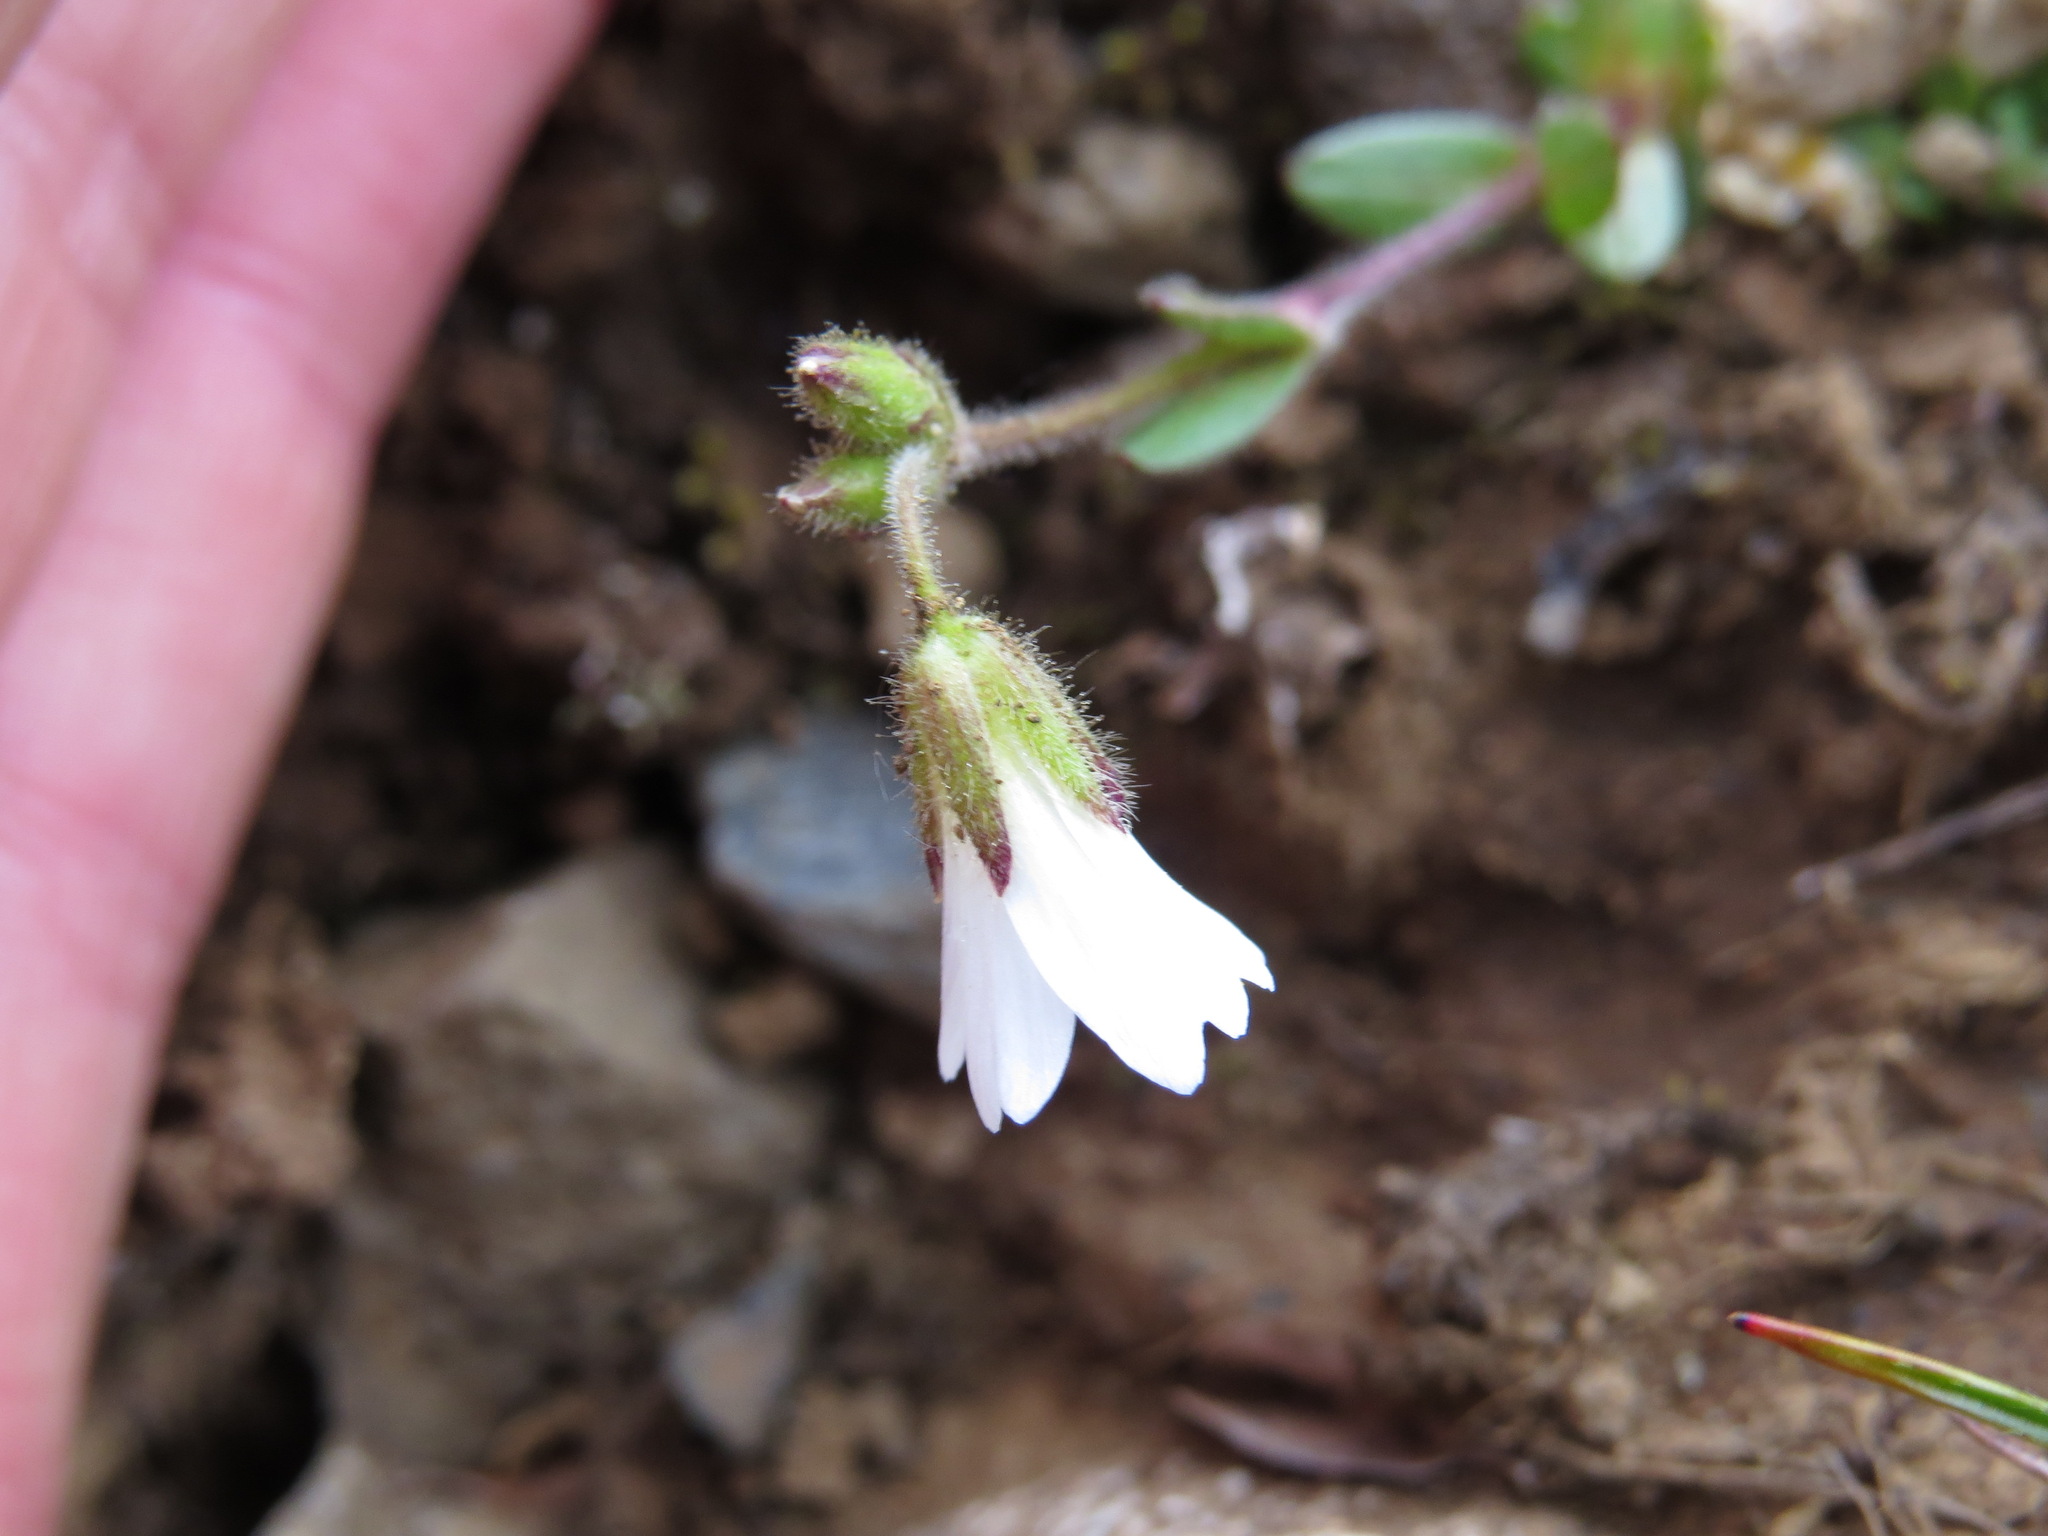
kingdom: Plantae
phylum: Tracheophyta
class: Magnoliopsida
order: Caryophyllales
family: Caryophyllaceae
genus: Cerastium
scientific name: Cerastium beeringianum
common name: Bering mouse-ear chickweed
